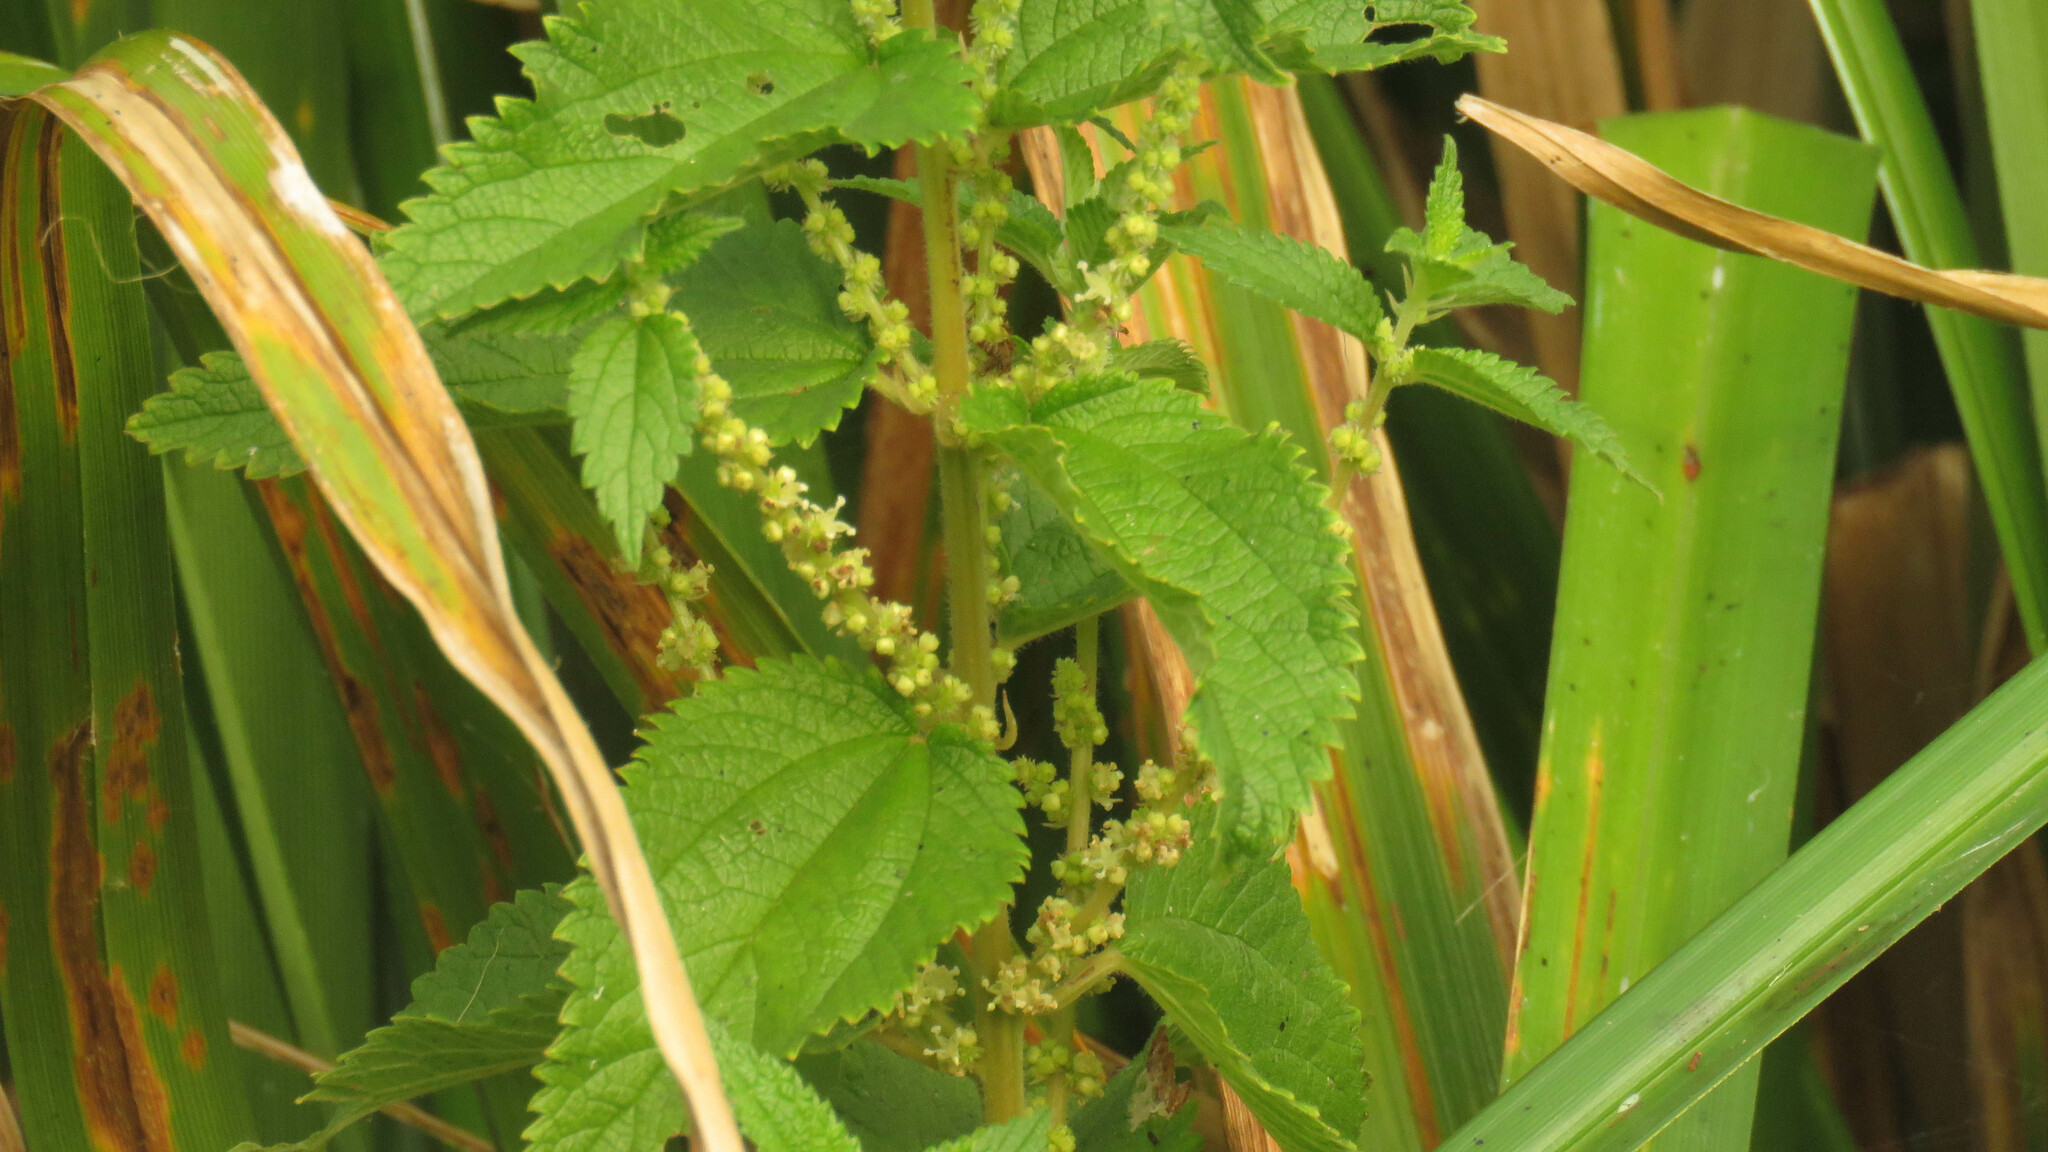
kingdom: Plantae
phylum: Tracheophyta
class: Magnoliopsida
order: Rosales
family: Urticaceae
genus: Boehmeria
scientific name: Boehmeria cylindrica
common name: Bog-hemp
